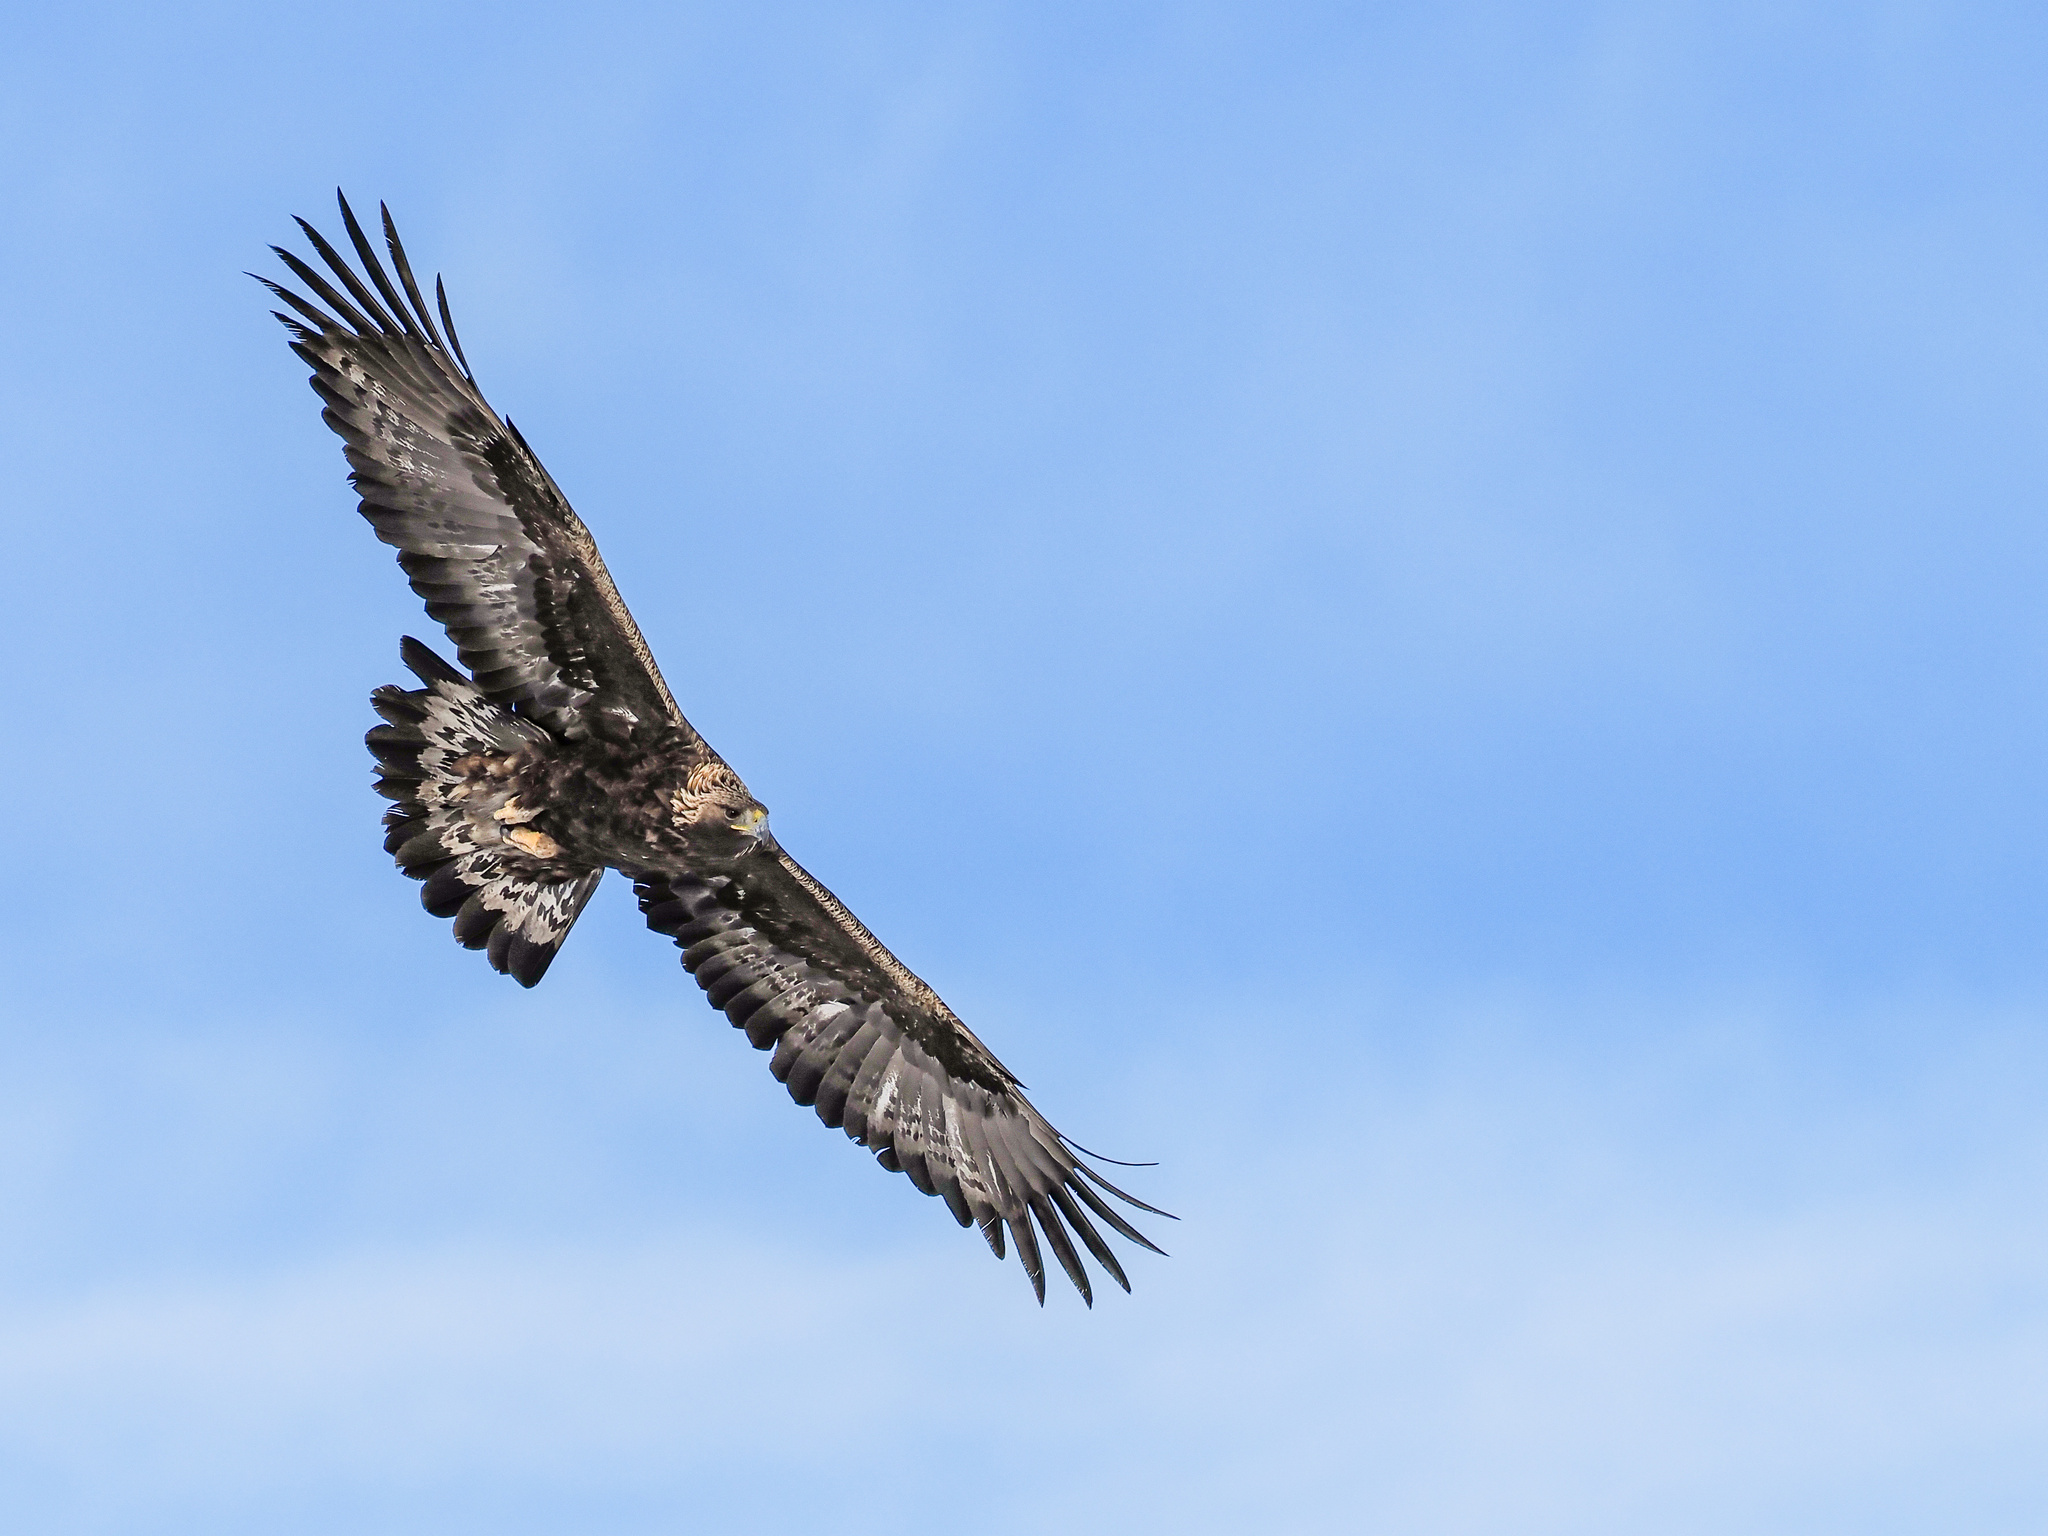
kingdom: Animalia
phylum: Chordata
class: Aves
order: Accipitriformes
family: Accipitridae
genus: Aquila
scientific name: Aquila chrysaetos
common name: Golden eagle
